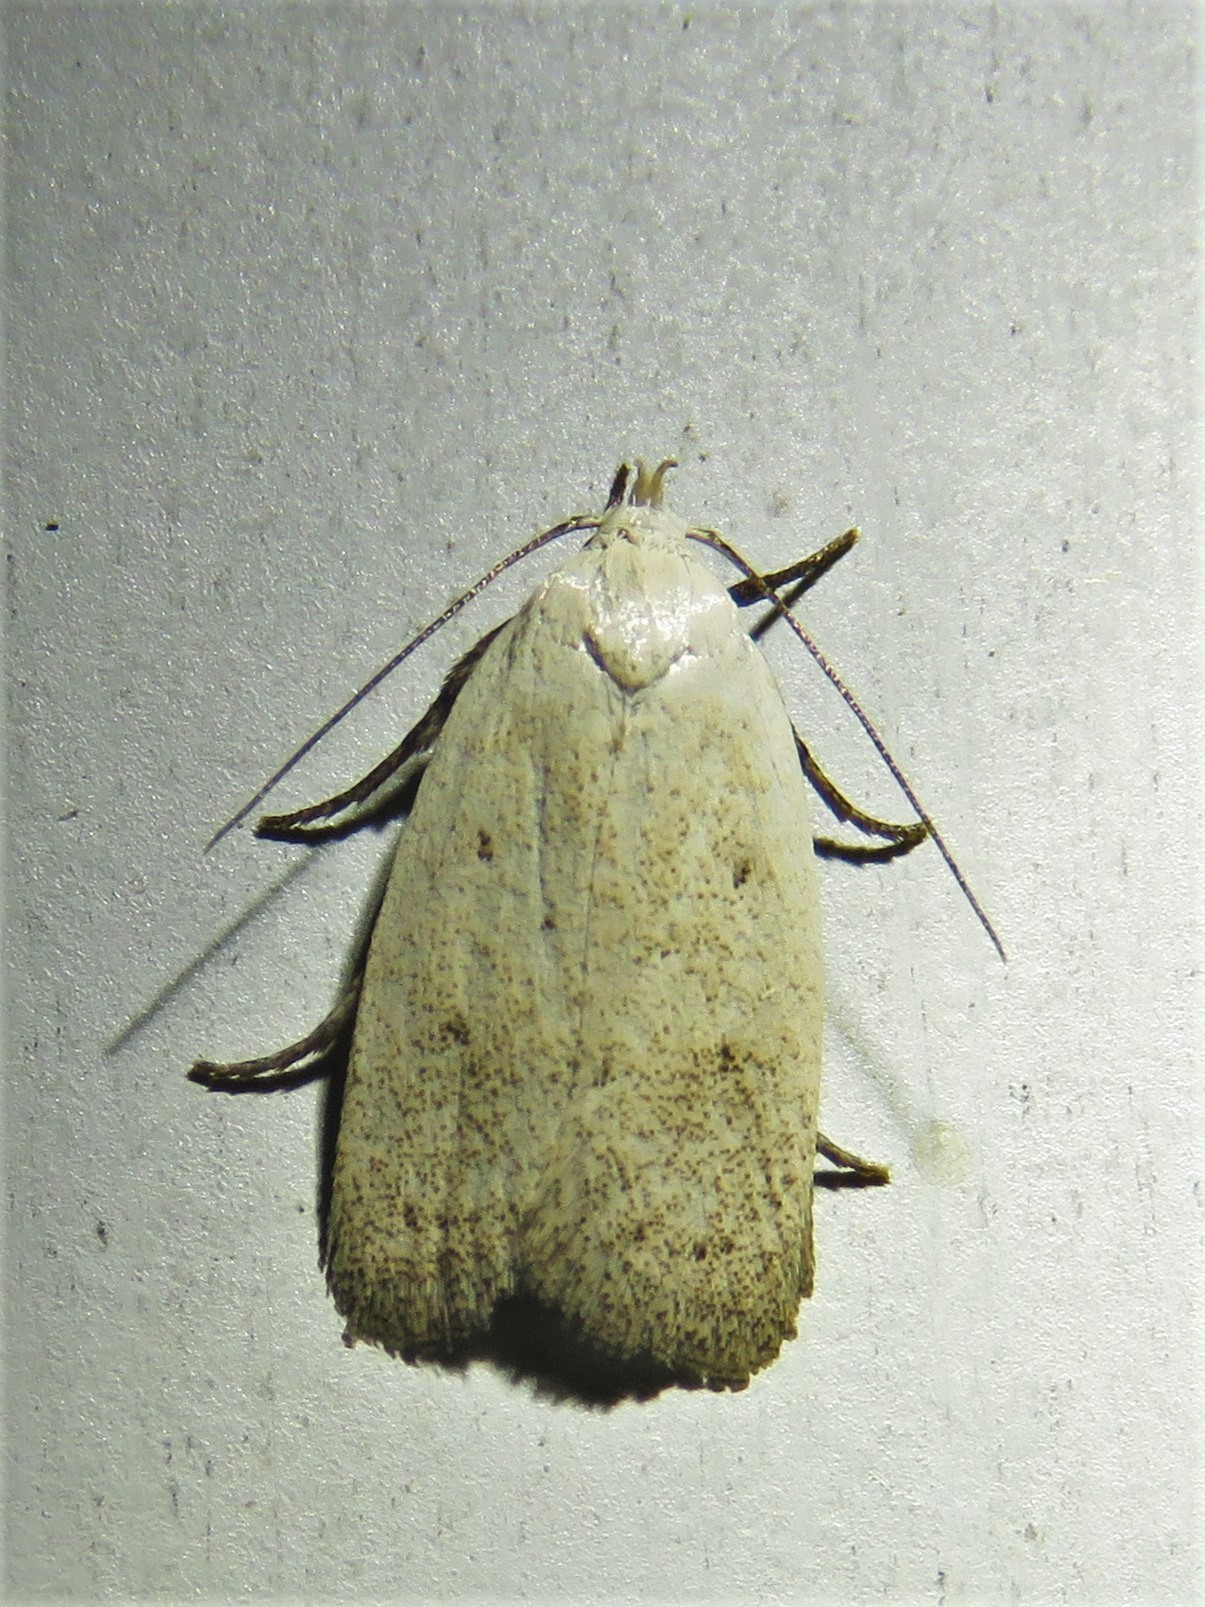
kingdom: Animalia
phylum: Arthropoda
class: Insecta
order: Lepidoptera
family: Oecophoridae
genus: Inga
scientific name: Inga cretacea
